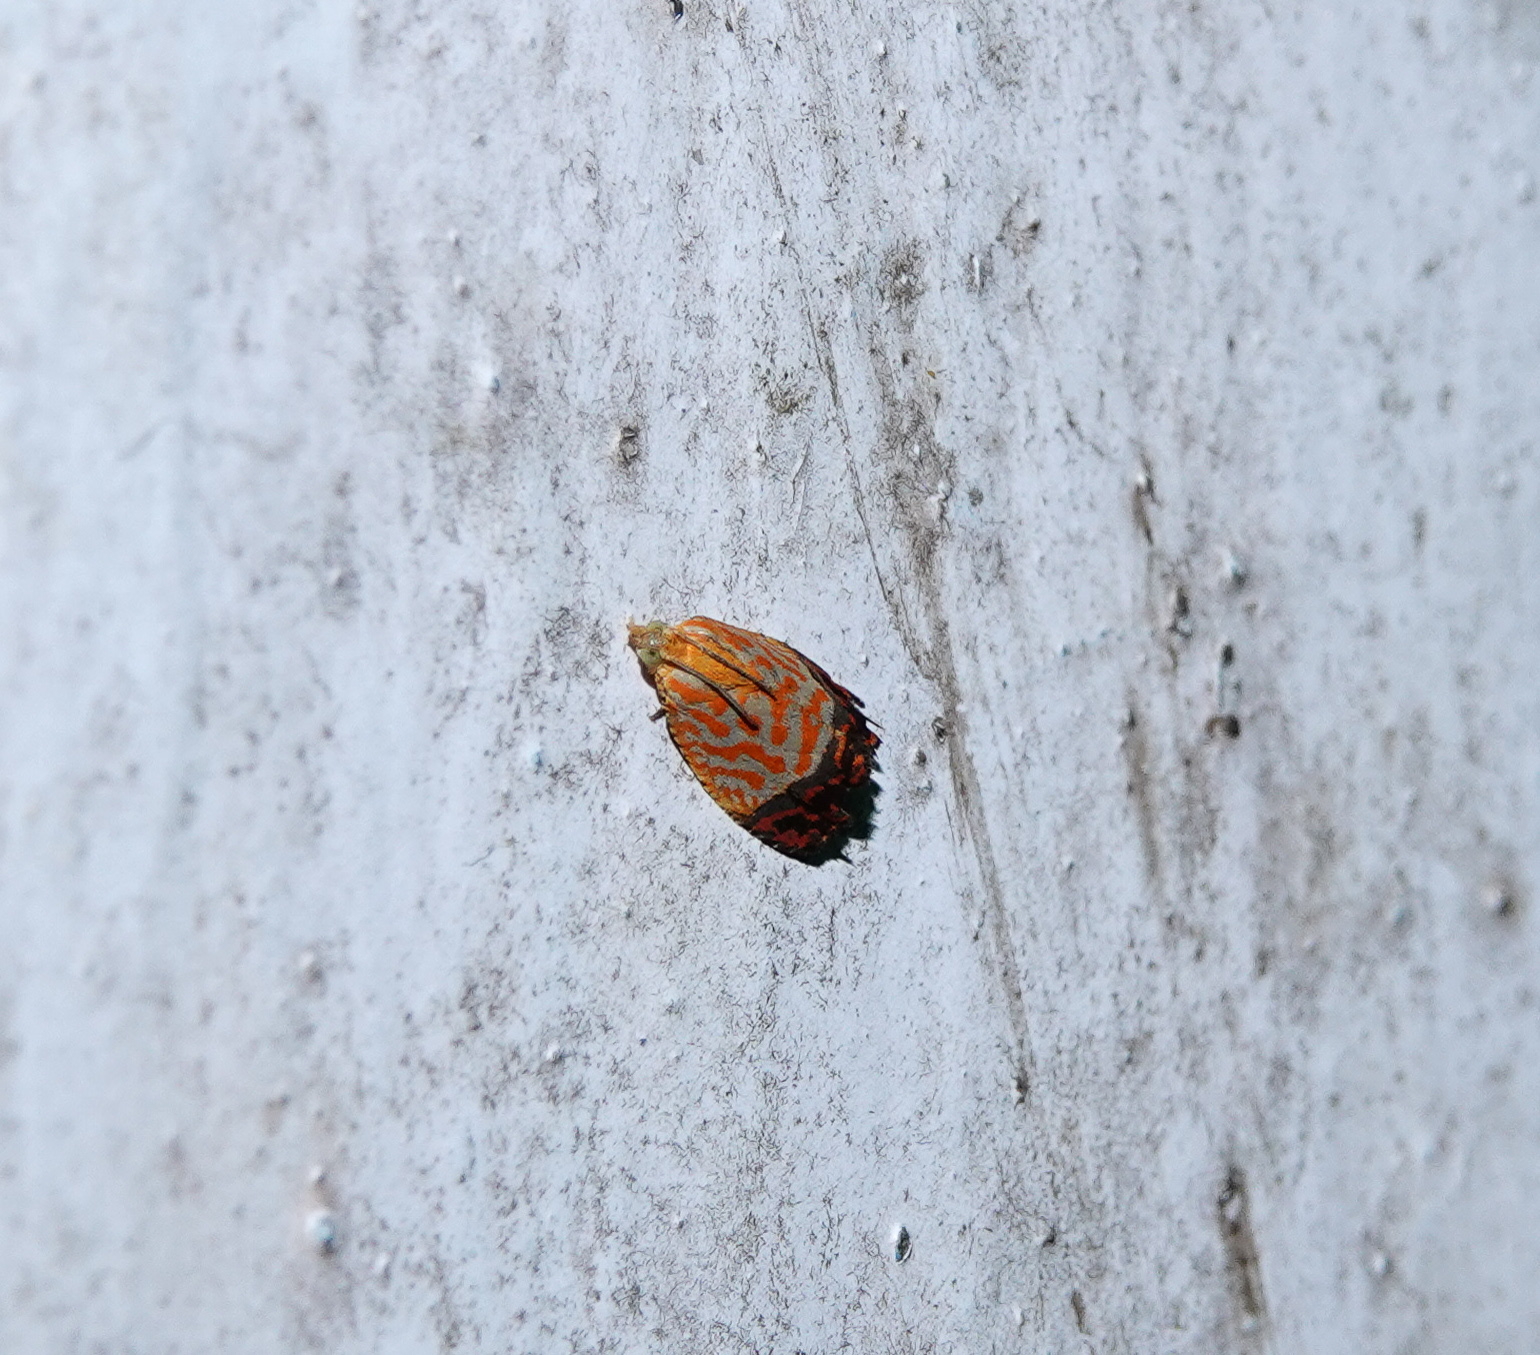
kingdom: Animalia
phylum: Arthropoda
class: Insecta
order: Lepidoptera
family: Tortricidae
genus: Loboschiza
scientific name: Loboschiza koenigiana
